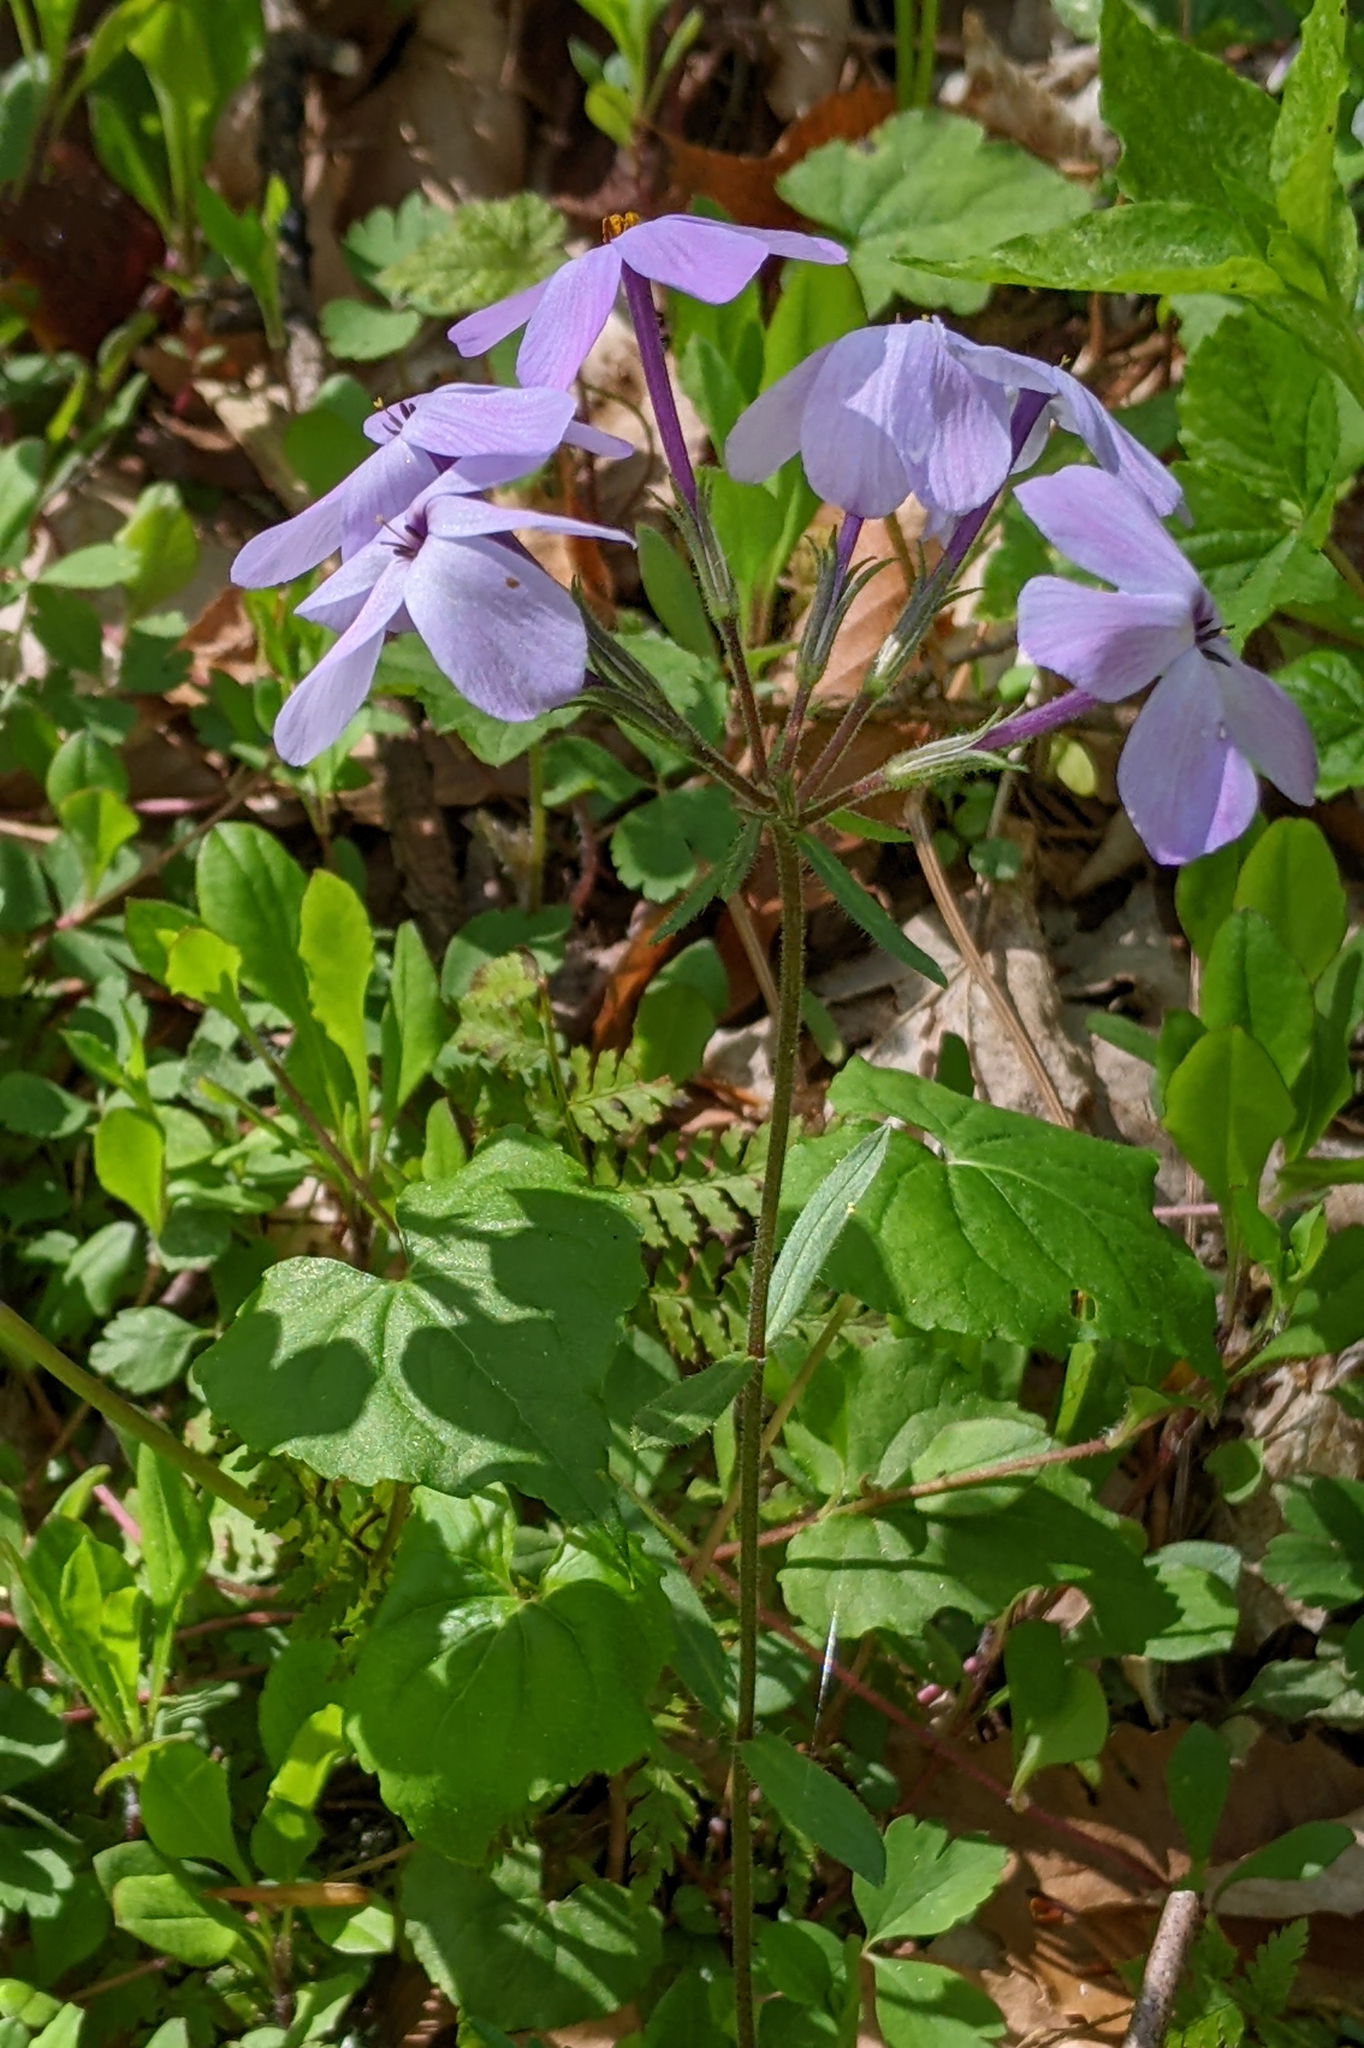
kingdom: Plantae
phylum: Tracheophyta
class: Magnoliopsida
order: Ericales
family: Polemoniaceae
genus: Phlox
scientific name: Phlox stolonifera
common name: Creeping phlox
